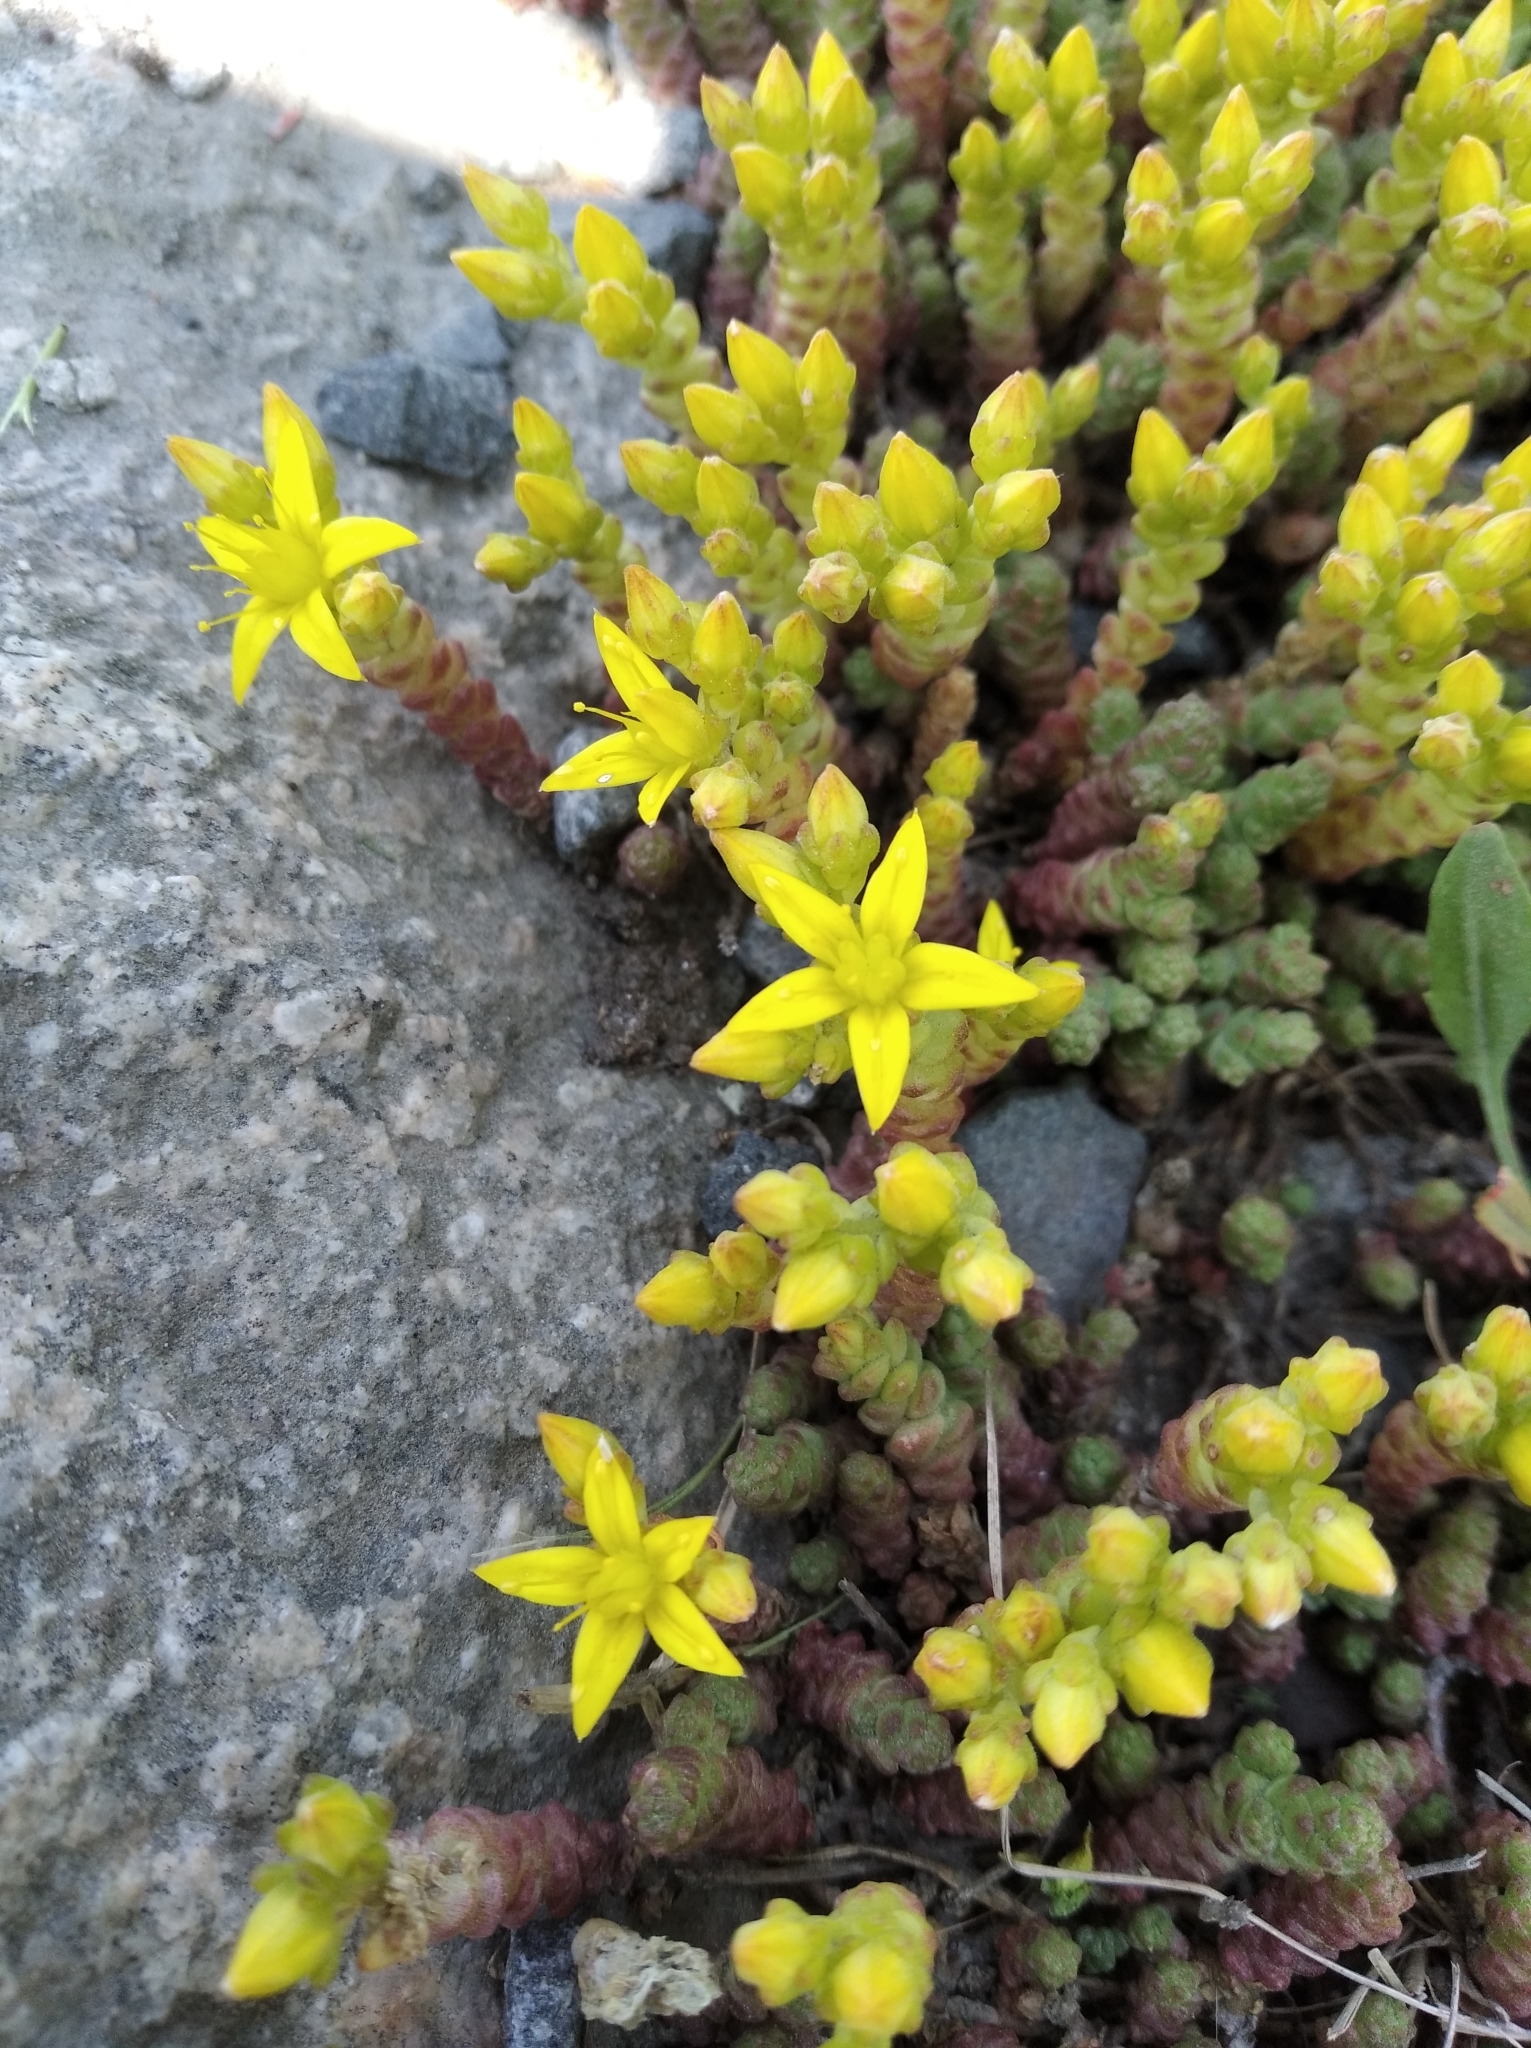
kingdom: Plantae
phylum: Tracheophyta
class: Magnoliopsida
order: Saxifragales
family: Crassulaceae
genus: Sedum
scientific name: Sedum acre
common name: Biting stonecrop
